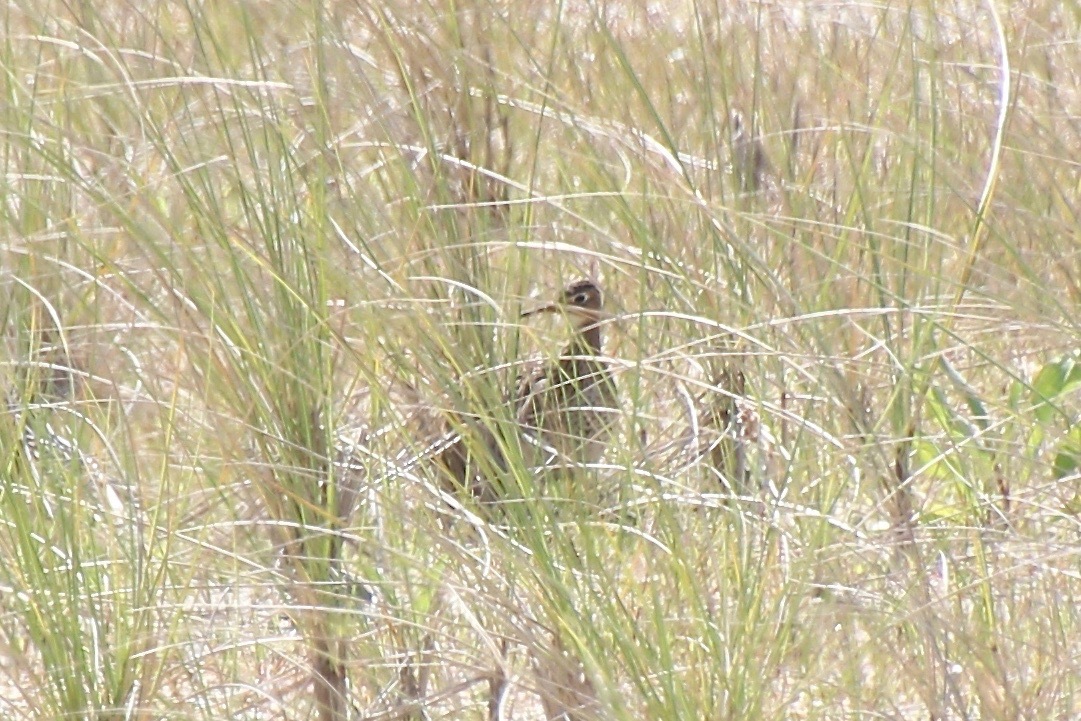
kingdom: Animalia
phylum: Chordata
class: Aves
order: Charadriiformes
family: Scolopacidae
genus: Bartramia
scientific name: Bartramia longicauda
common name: Upland sandpiper
